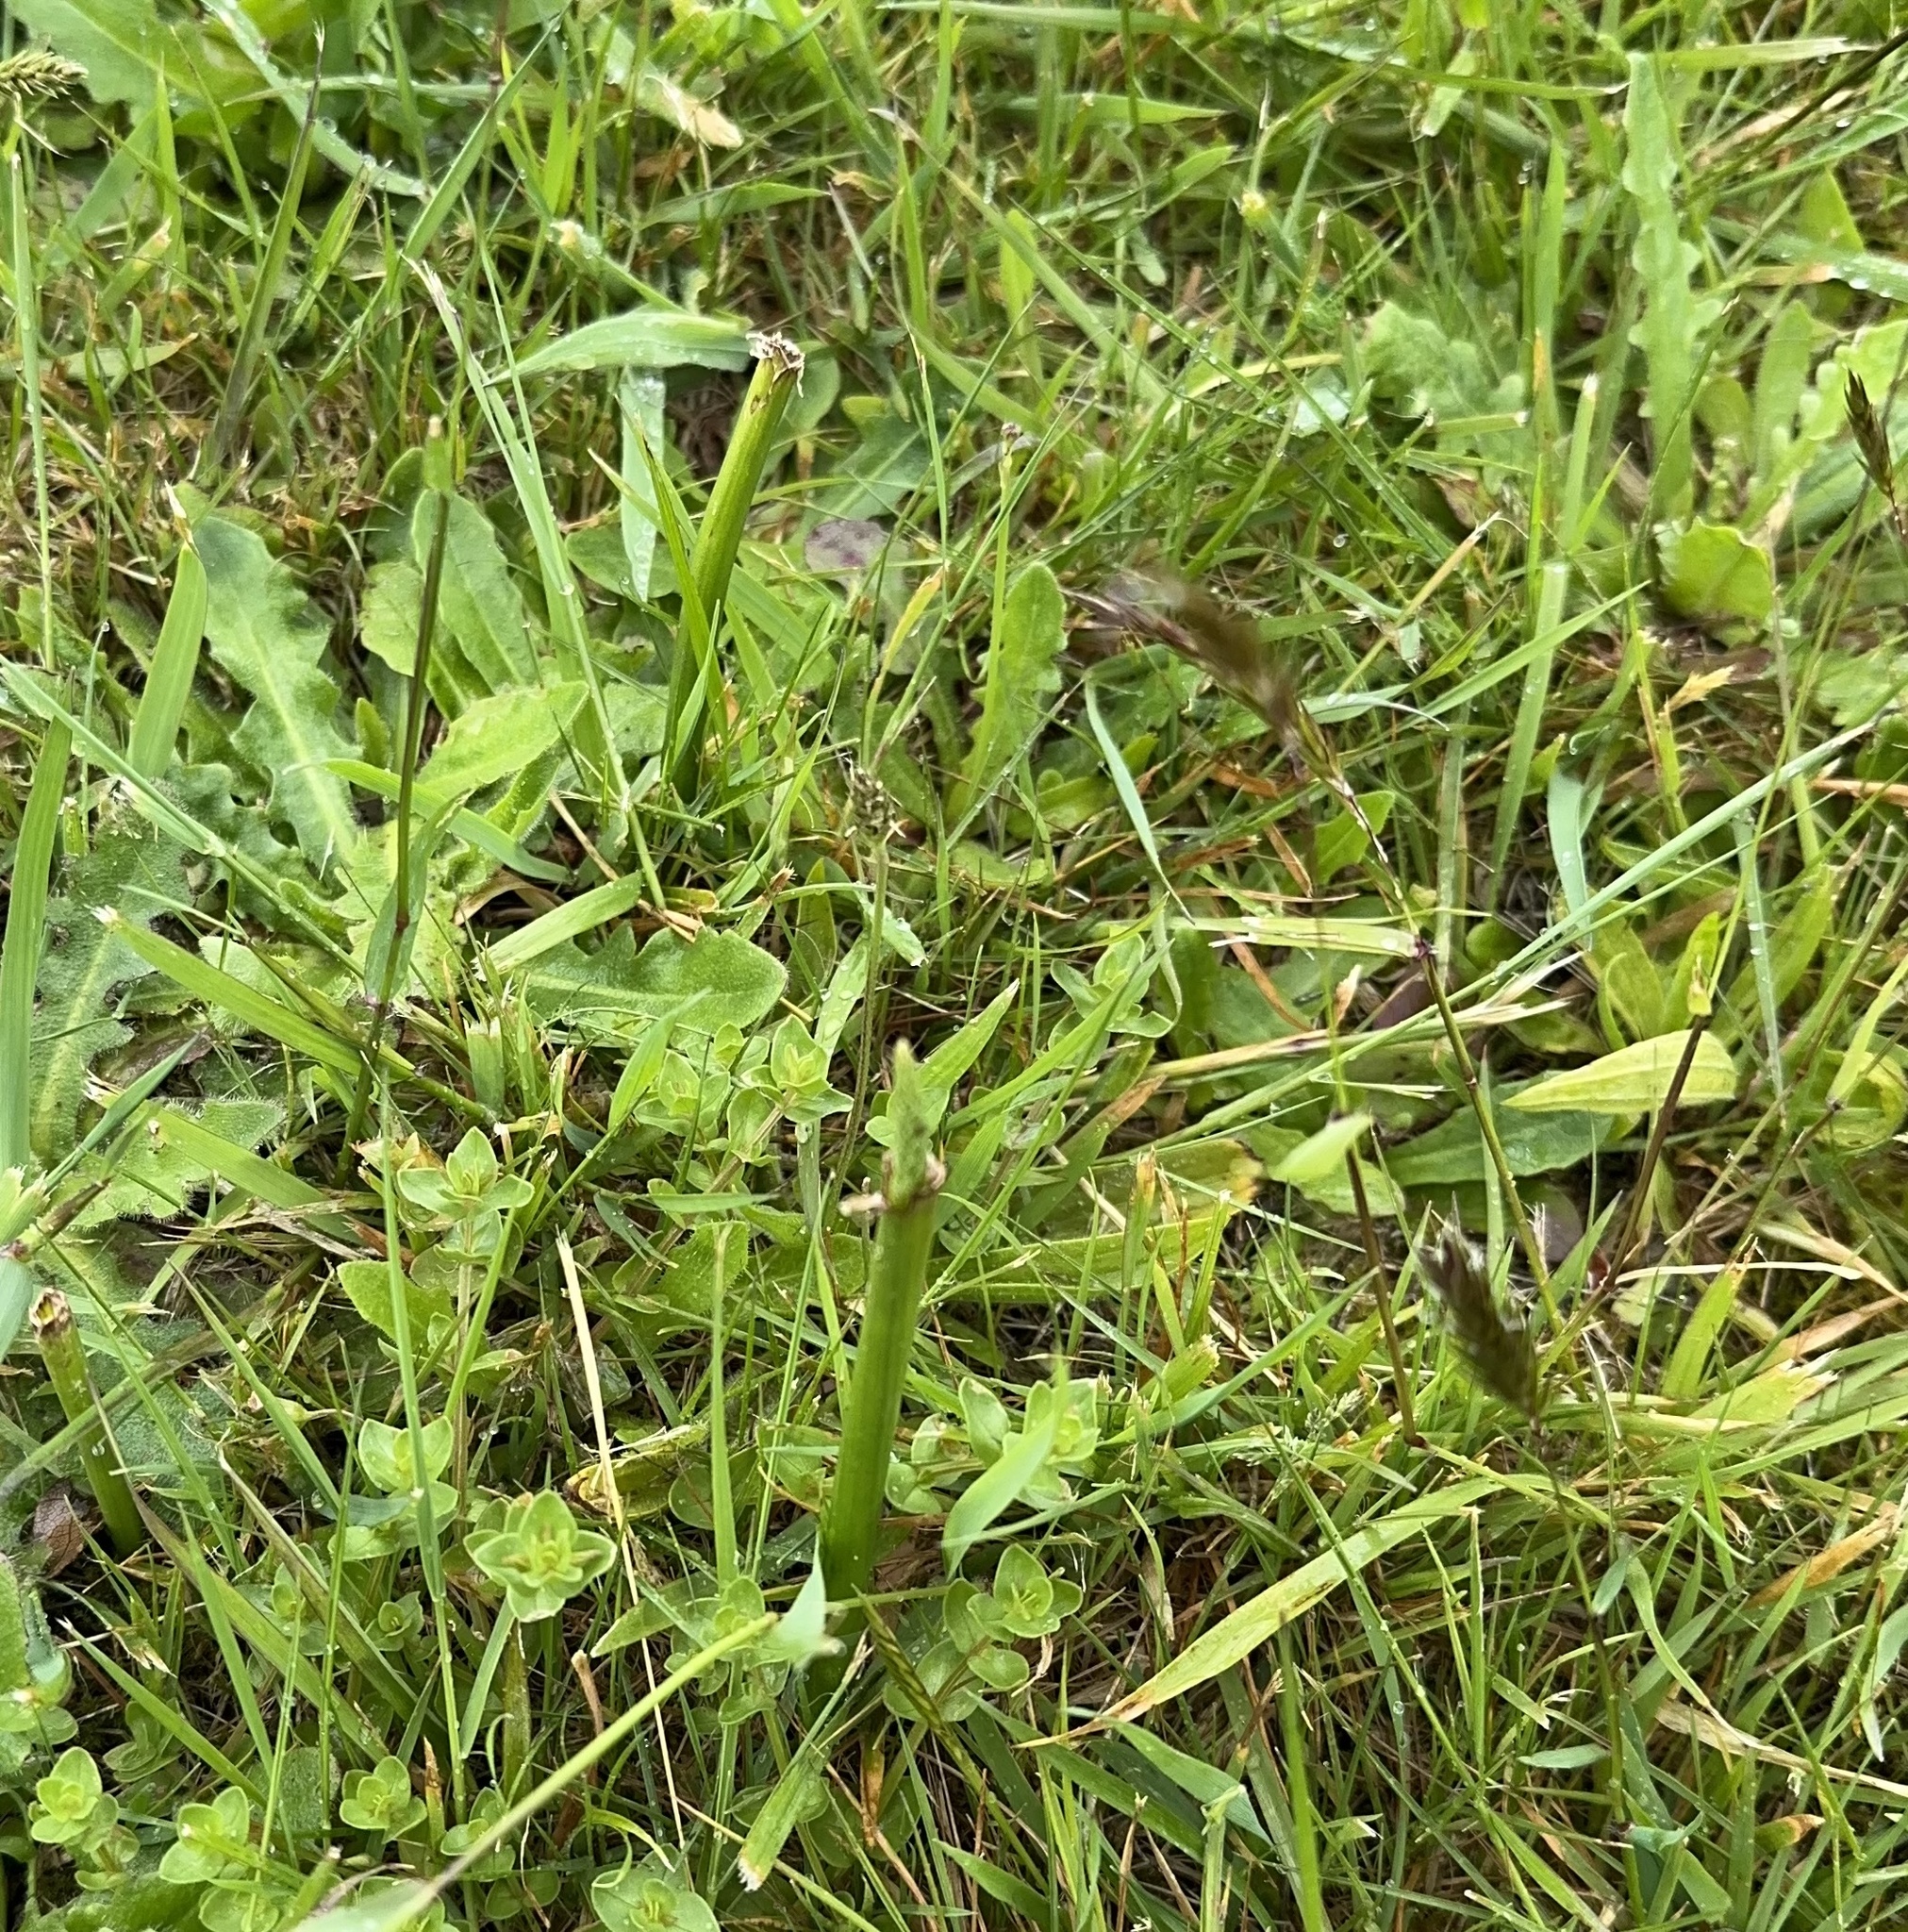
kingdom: Plantae
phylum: Tracheophyta
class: Liliopsida
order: Asparagales
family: Orchidaceae
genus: Microtis
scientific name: Microtis unifolia
